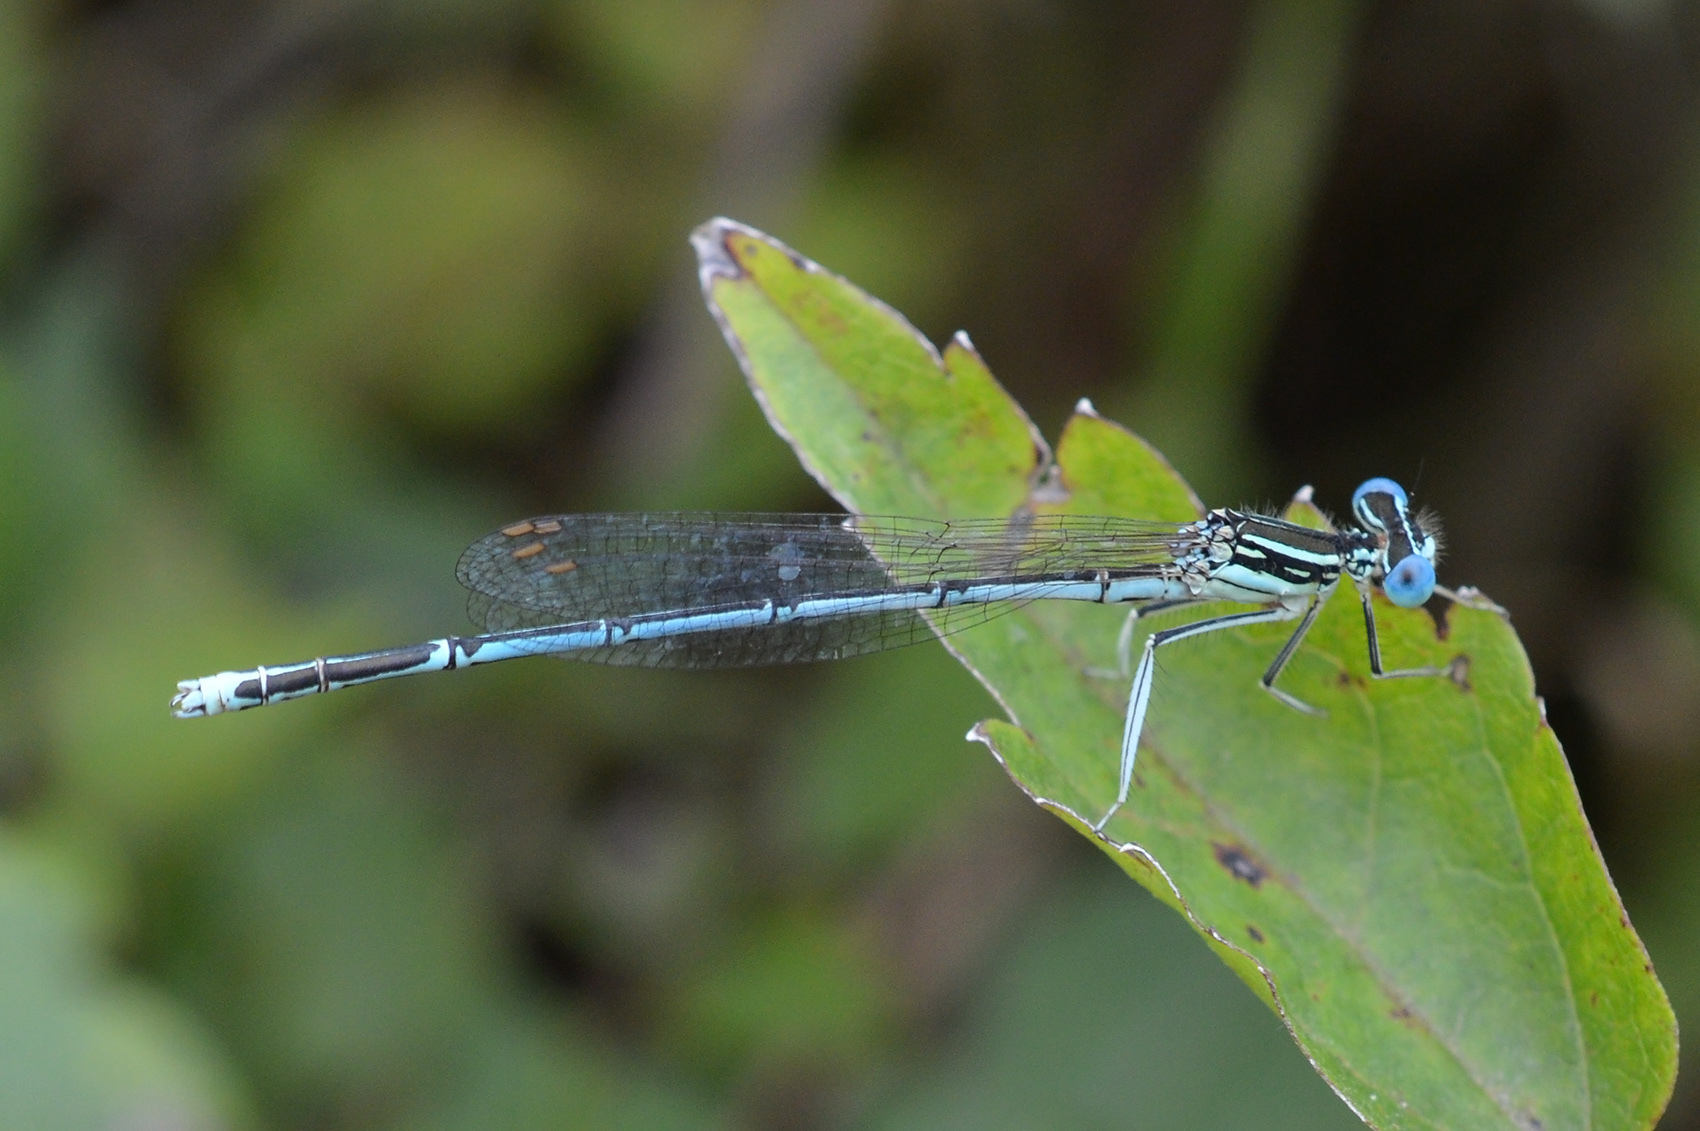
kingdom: Animalia
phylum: Arthropoda
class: Insecta
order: Odonata
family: Platycnemididae
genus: Platycnemis
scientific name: Platycnemis pennipes
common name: White-legged damselfly
